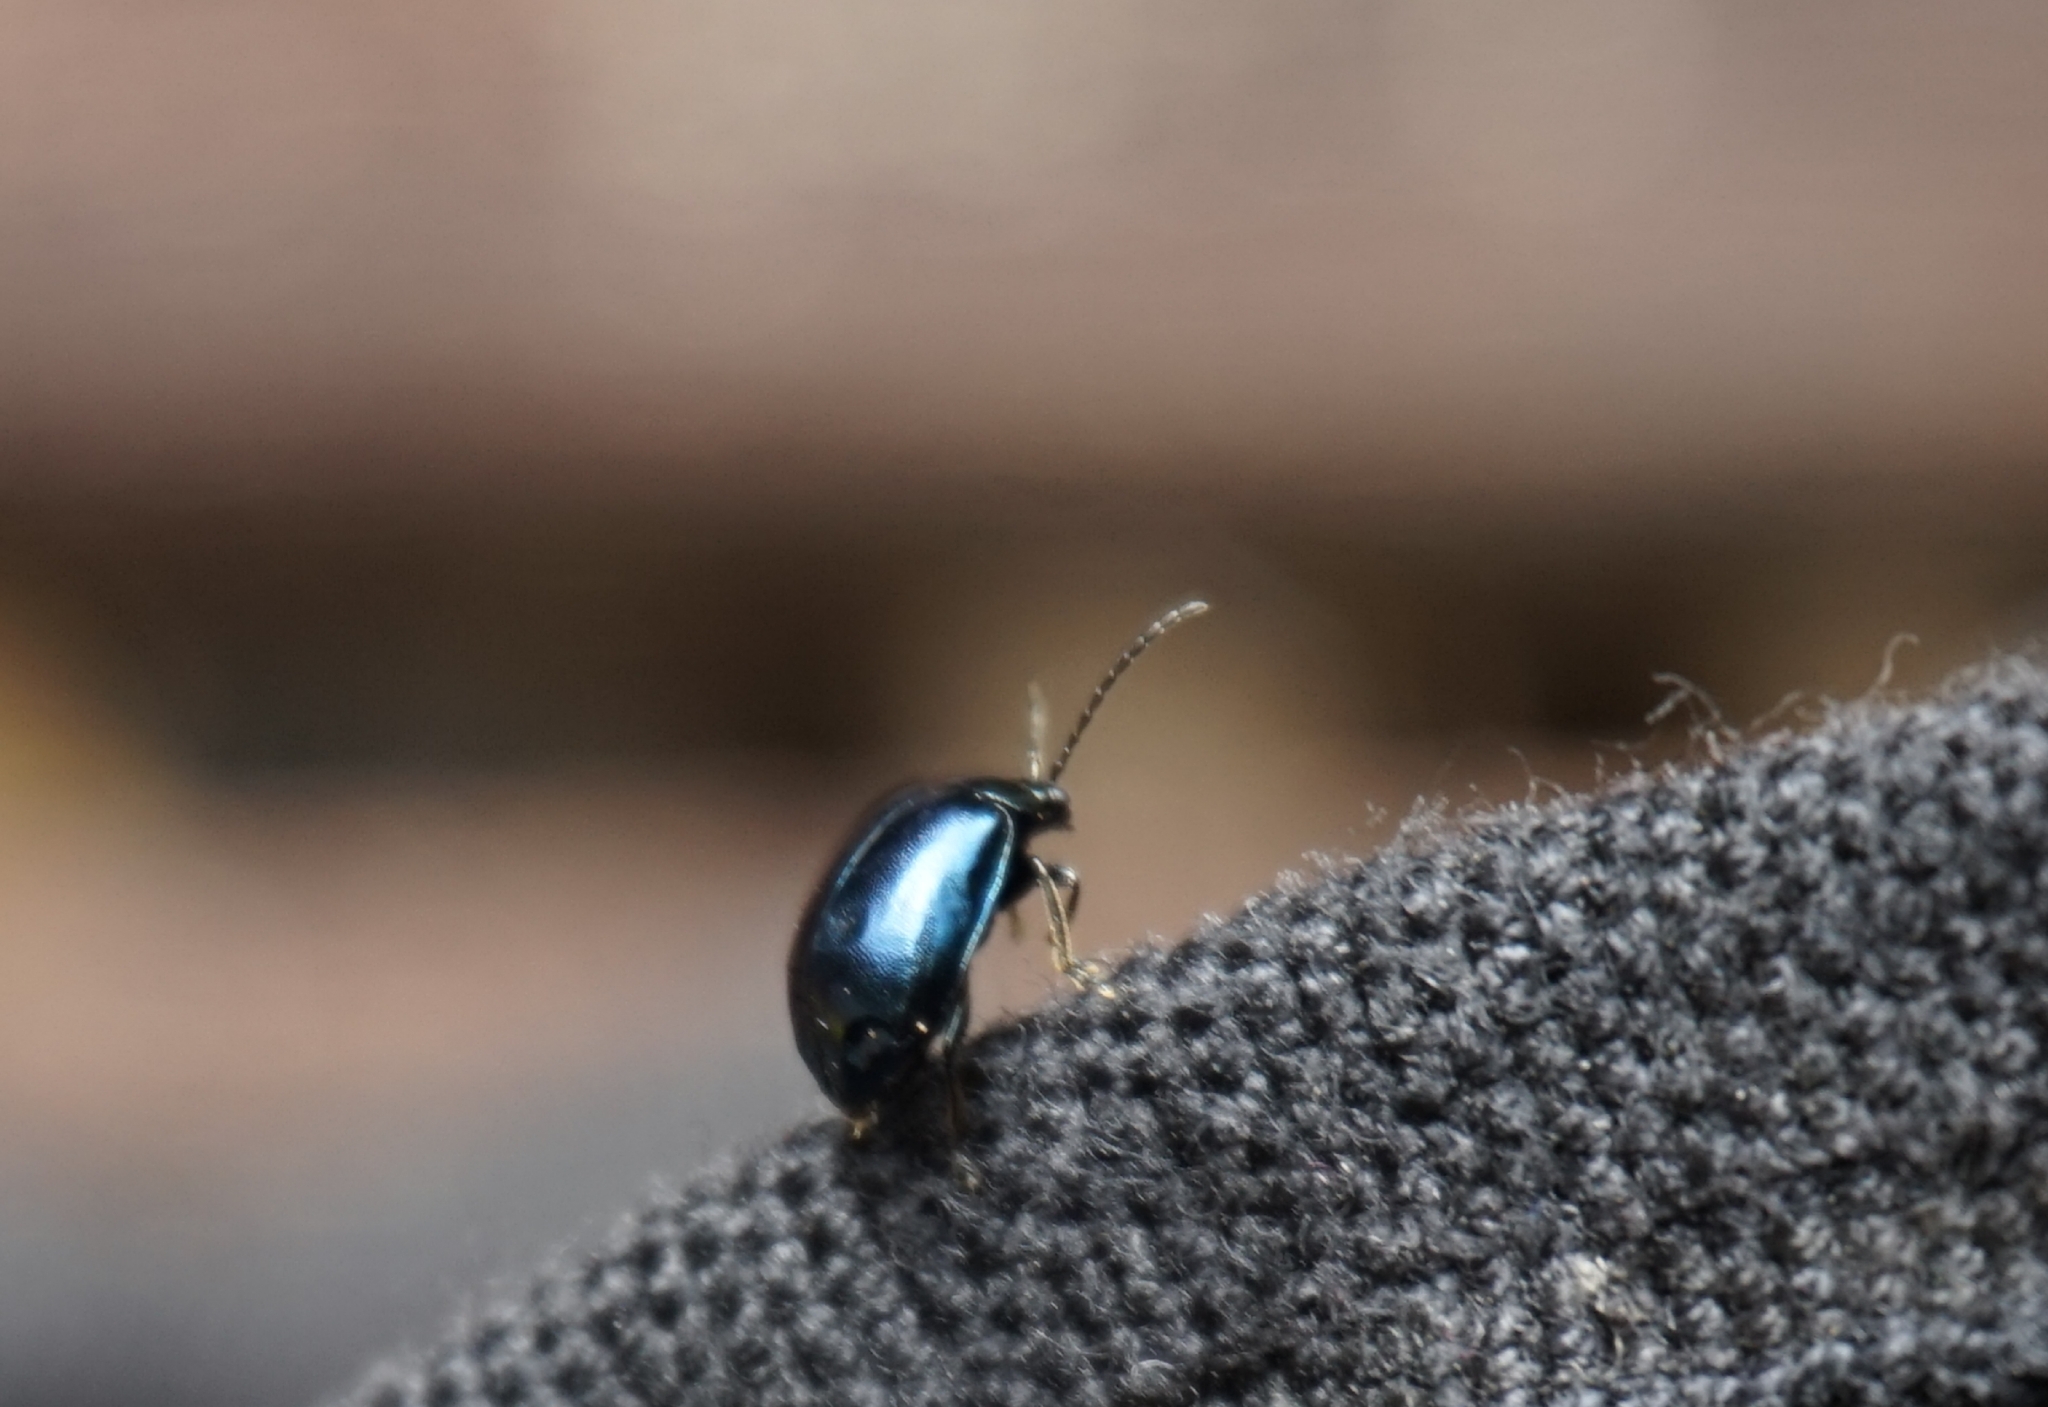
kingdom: Animalia
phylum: Arthropoda
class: Insecta
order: Coleoptera
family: Chrysomelidae
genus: Agelastica
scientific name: Agelastica alni
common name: Alder leaf beetle
